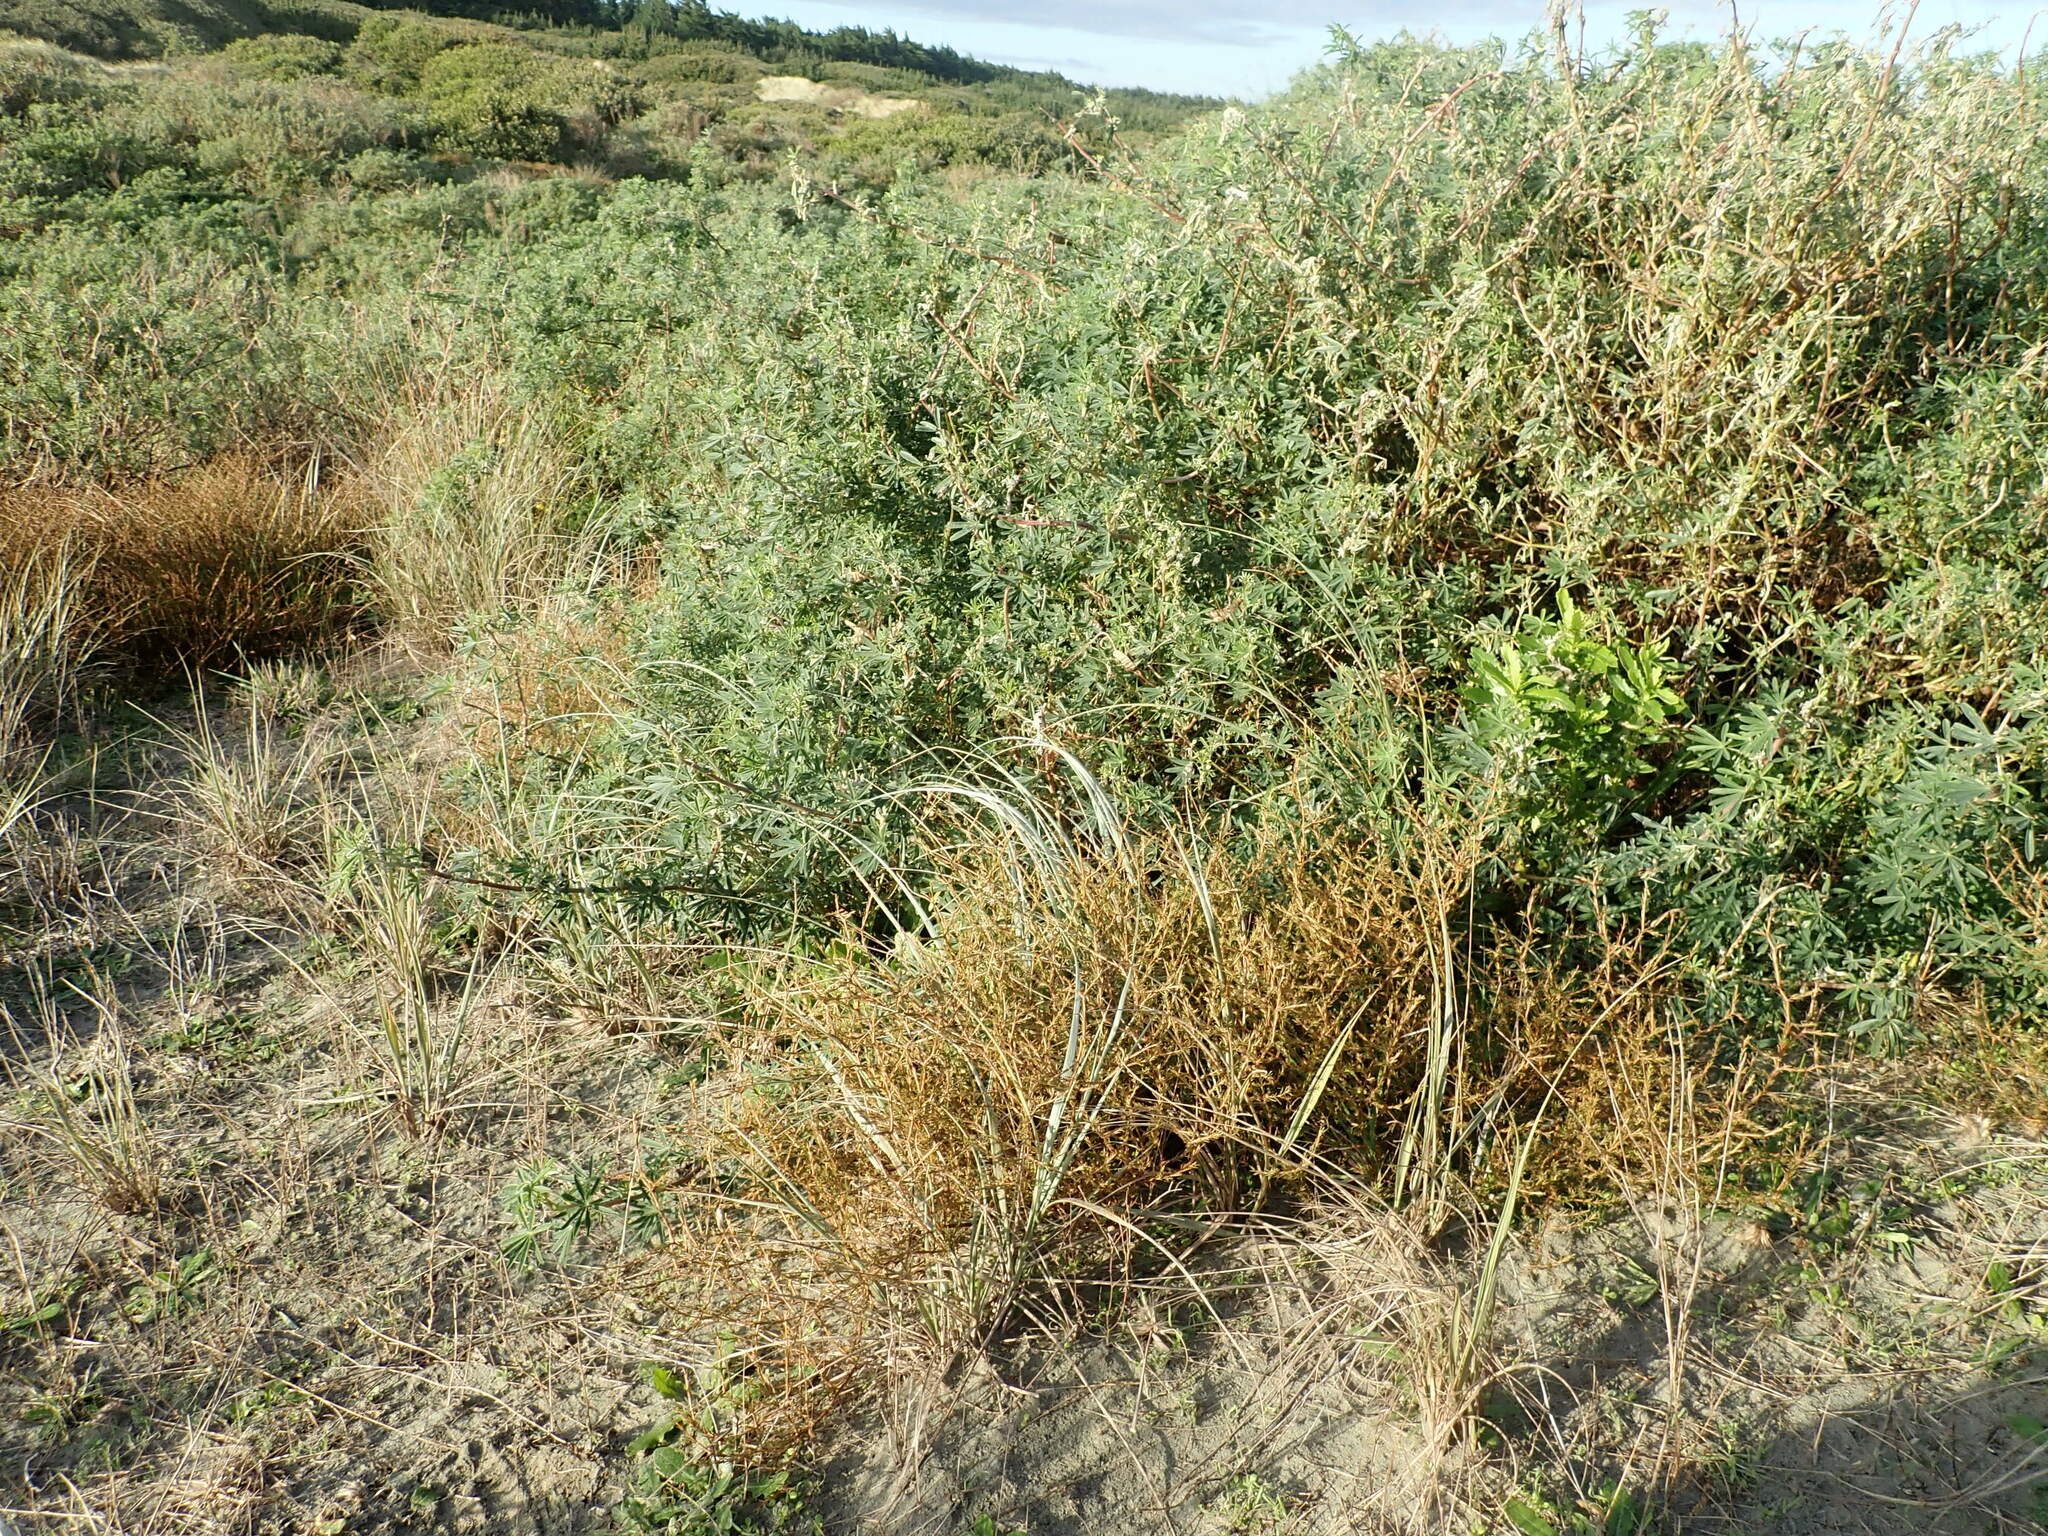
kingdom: Plantae
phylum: Tracheophyta
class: Magnoliopsida
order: Fabales
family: Fabaceae
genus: Lupinus
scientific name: Lupinus arboreus
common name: Yellow bush lupine
